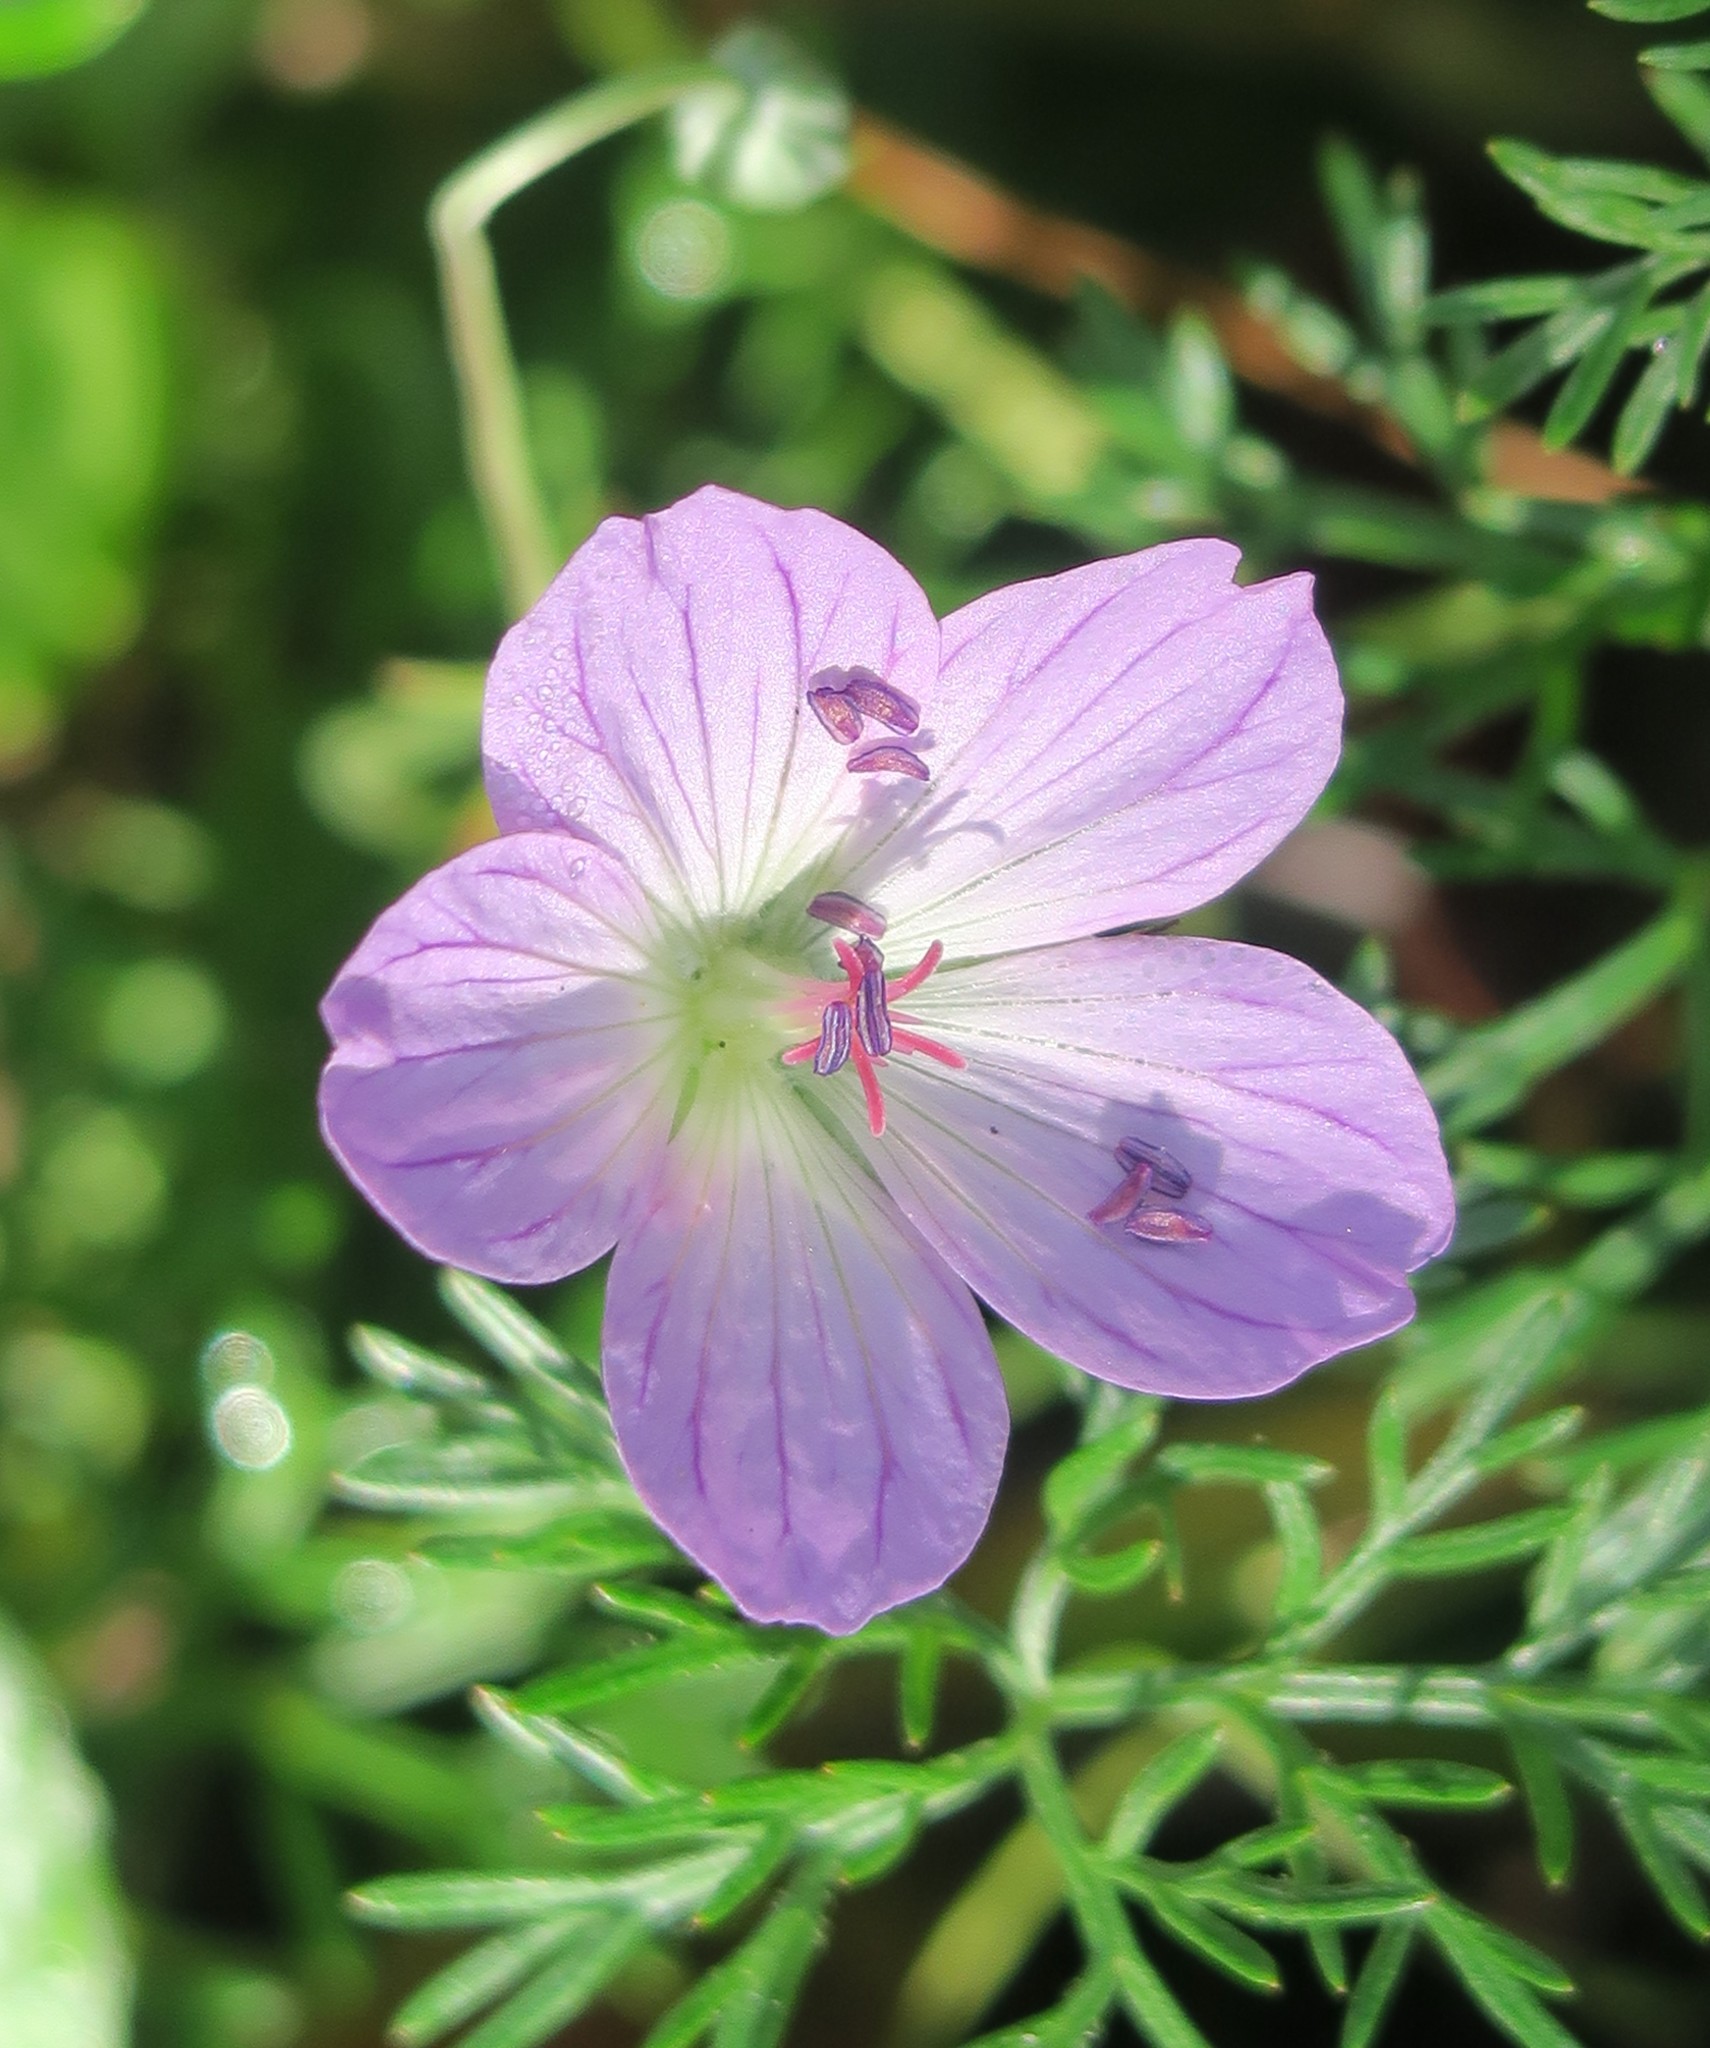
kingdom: Plantae
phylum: Tracheophyta
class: Magnoliopsida
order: Geraniales
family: Geraniaceae
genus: Geranium
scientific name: Geranium incanum
